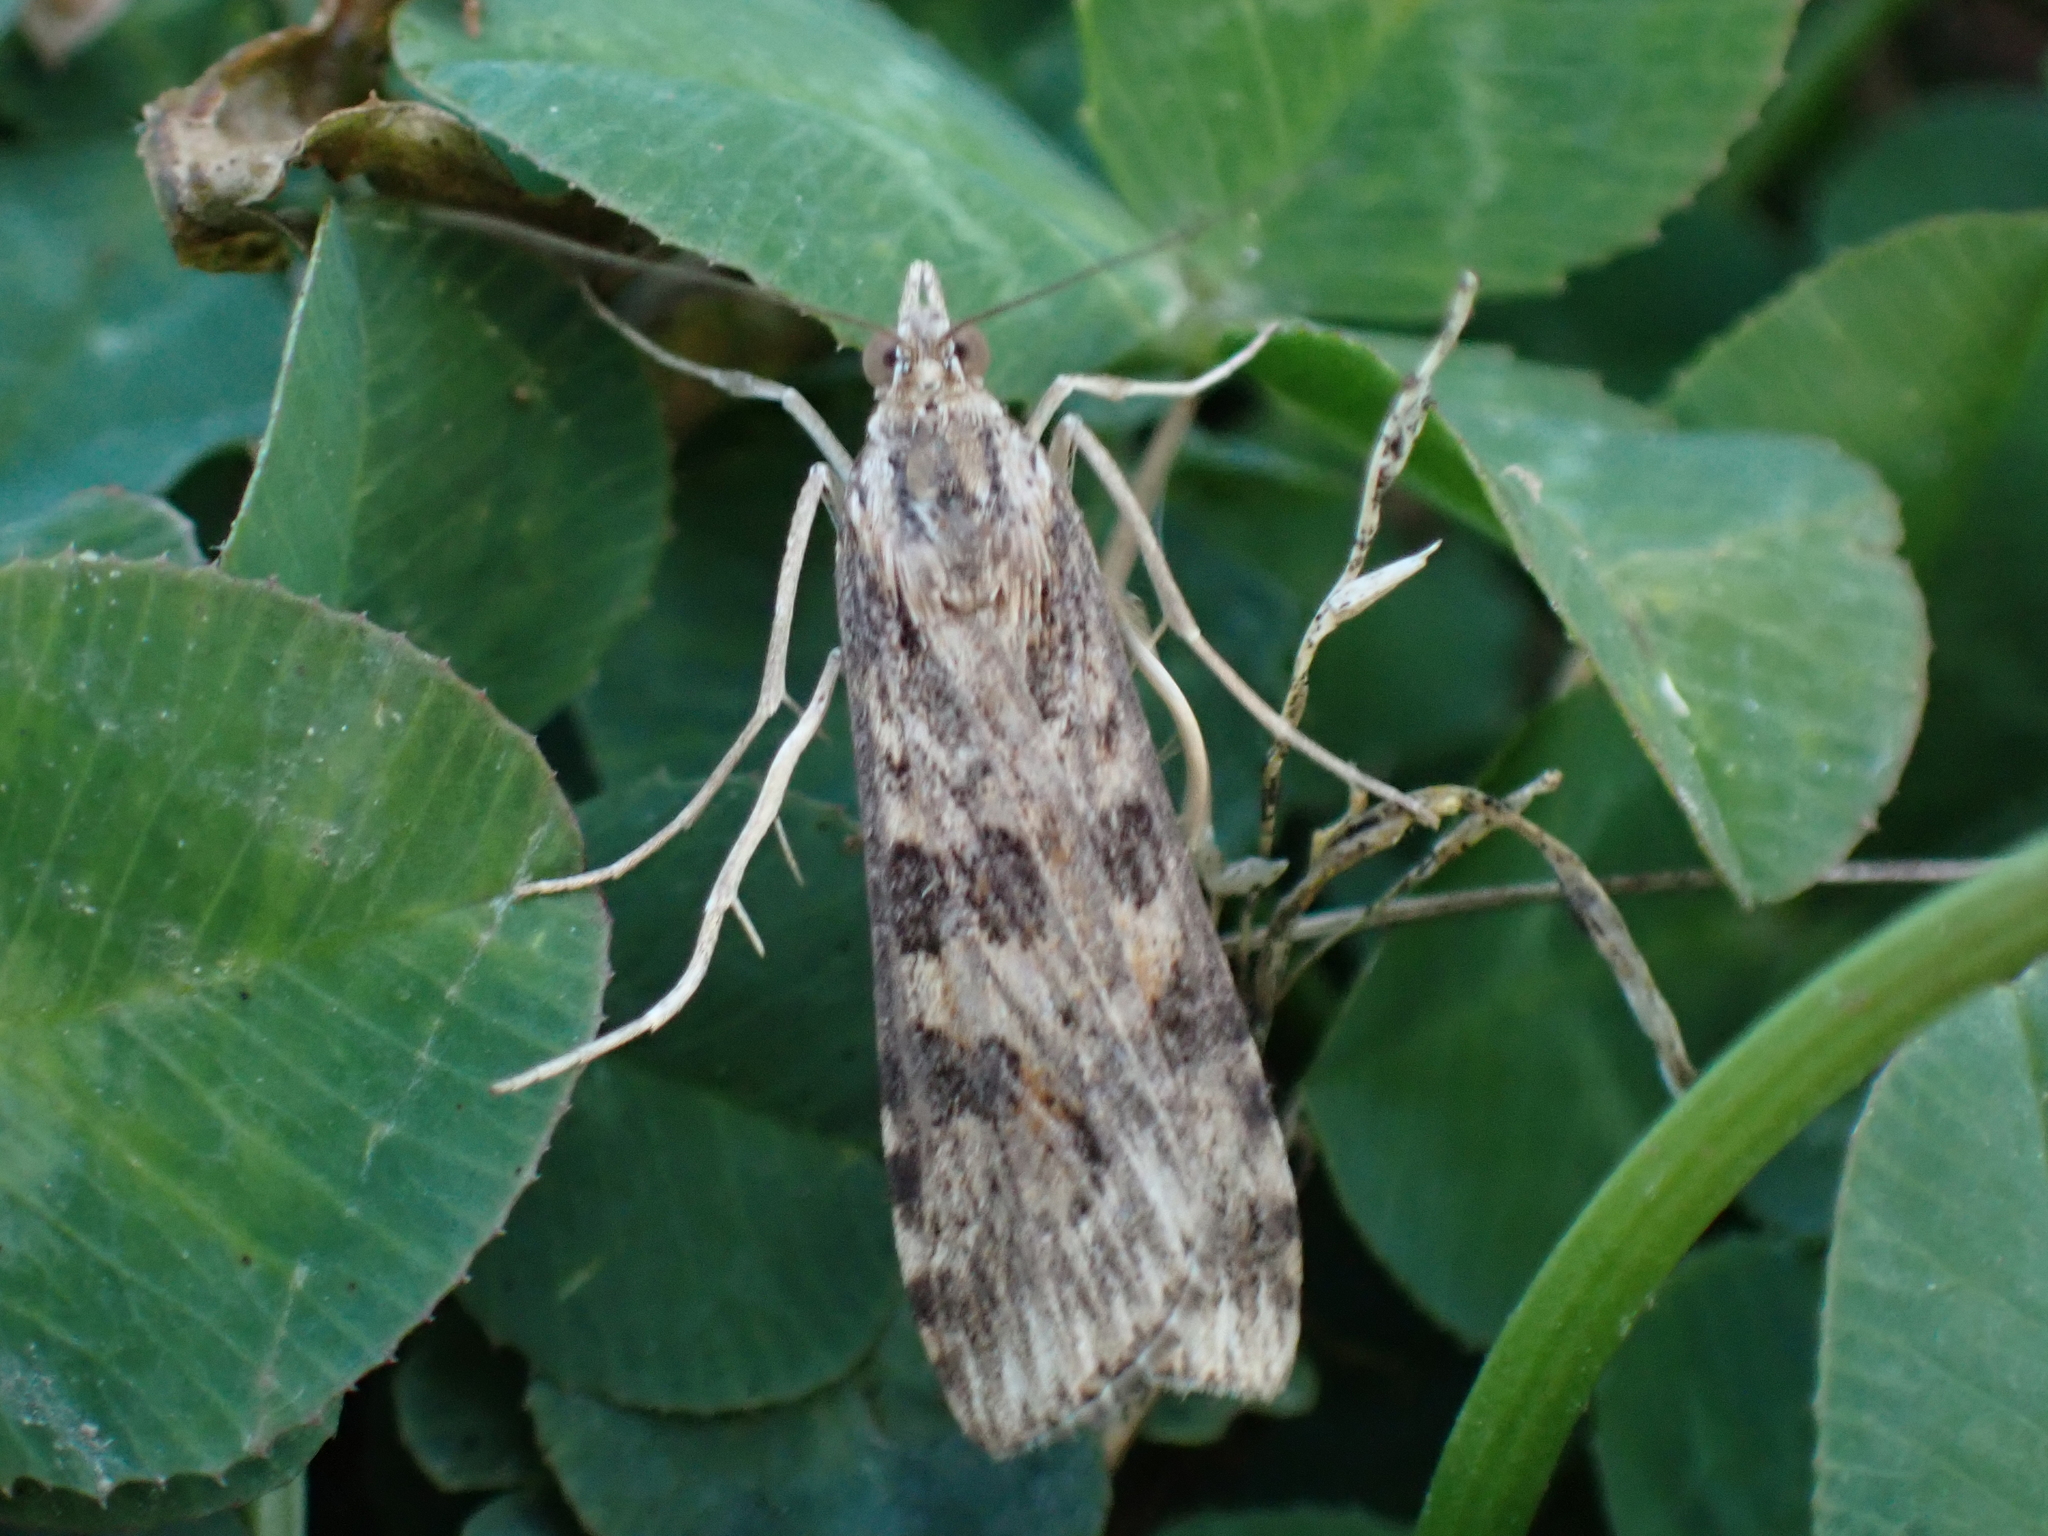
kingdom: Animalia
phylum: Arthropoda
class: Insecta
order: Lepidoptera
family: Crambidae
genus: Nomophila
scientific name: Nomophila nearctica
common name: American rush veneer
